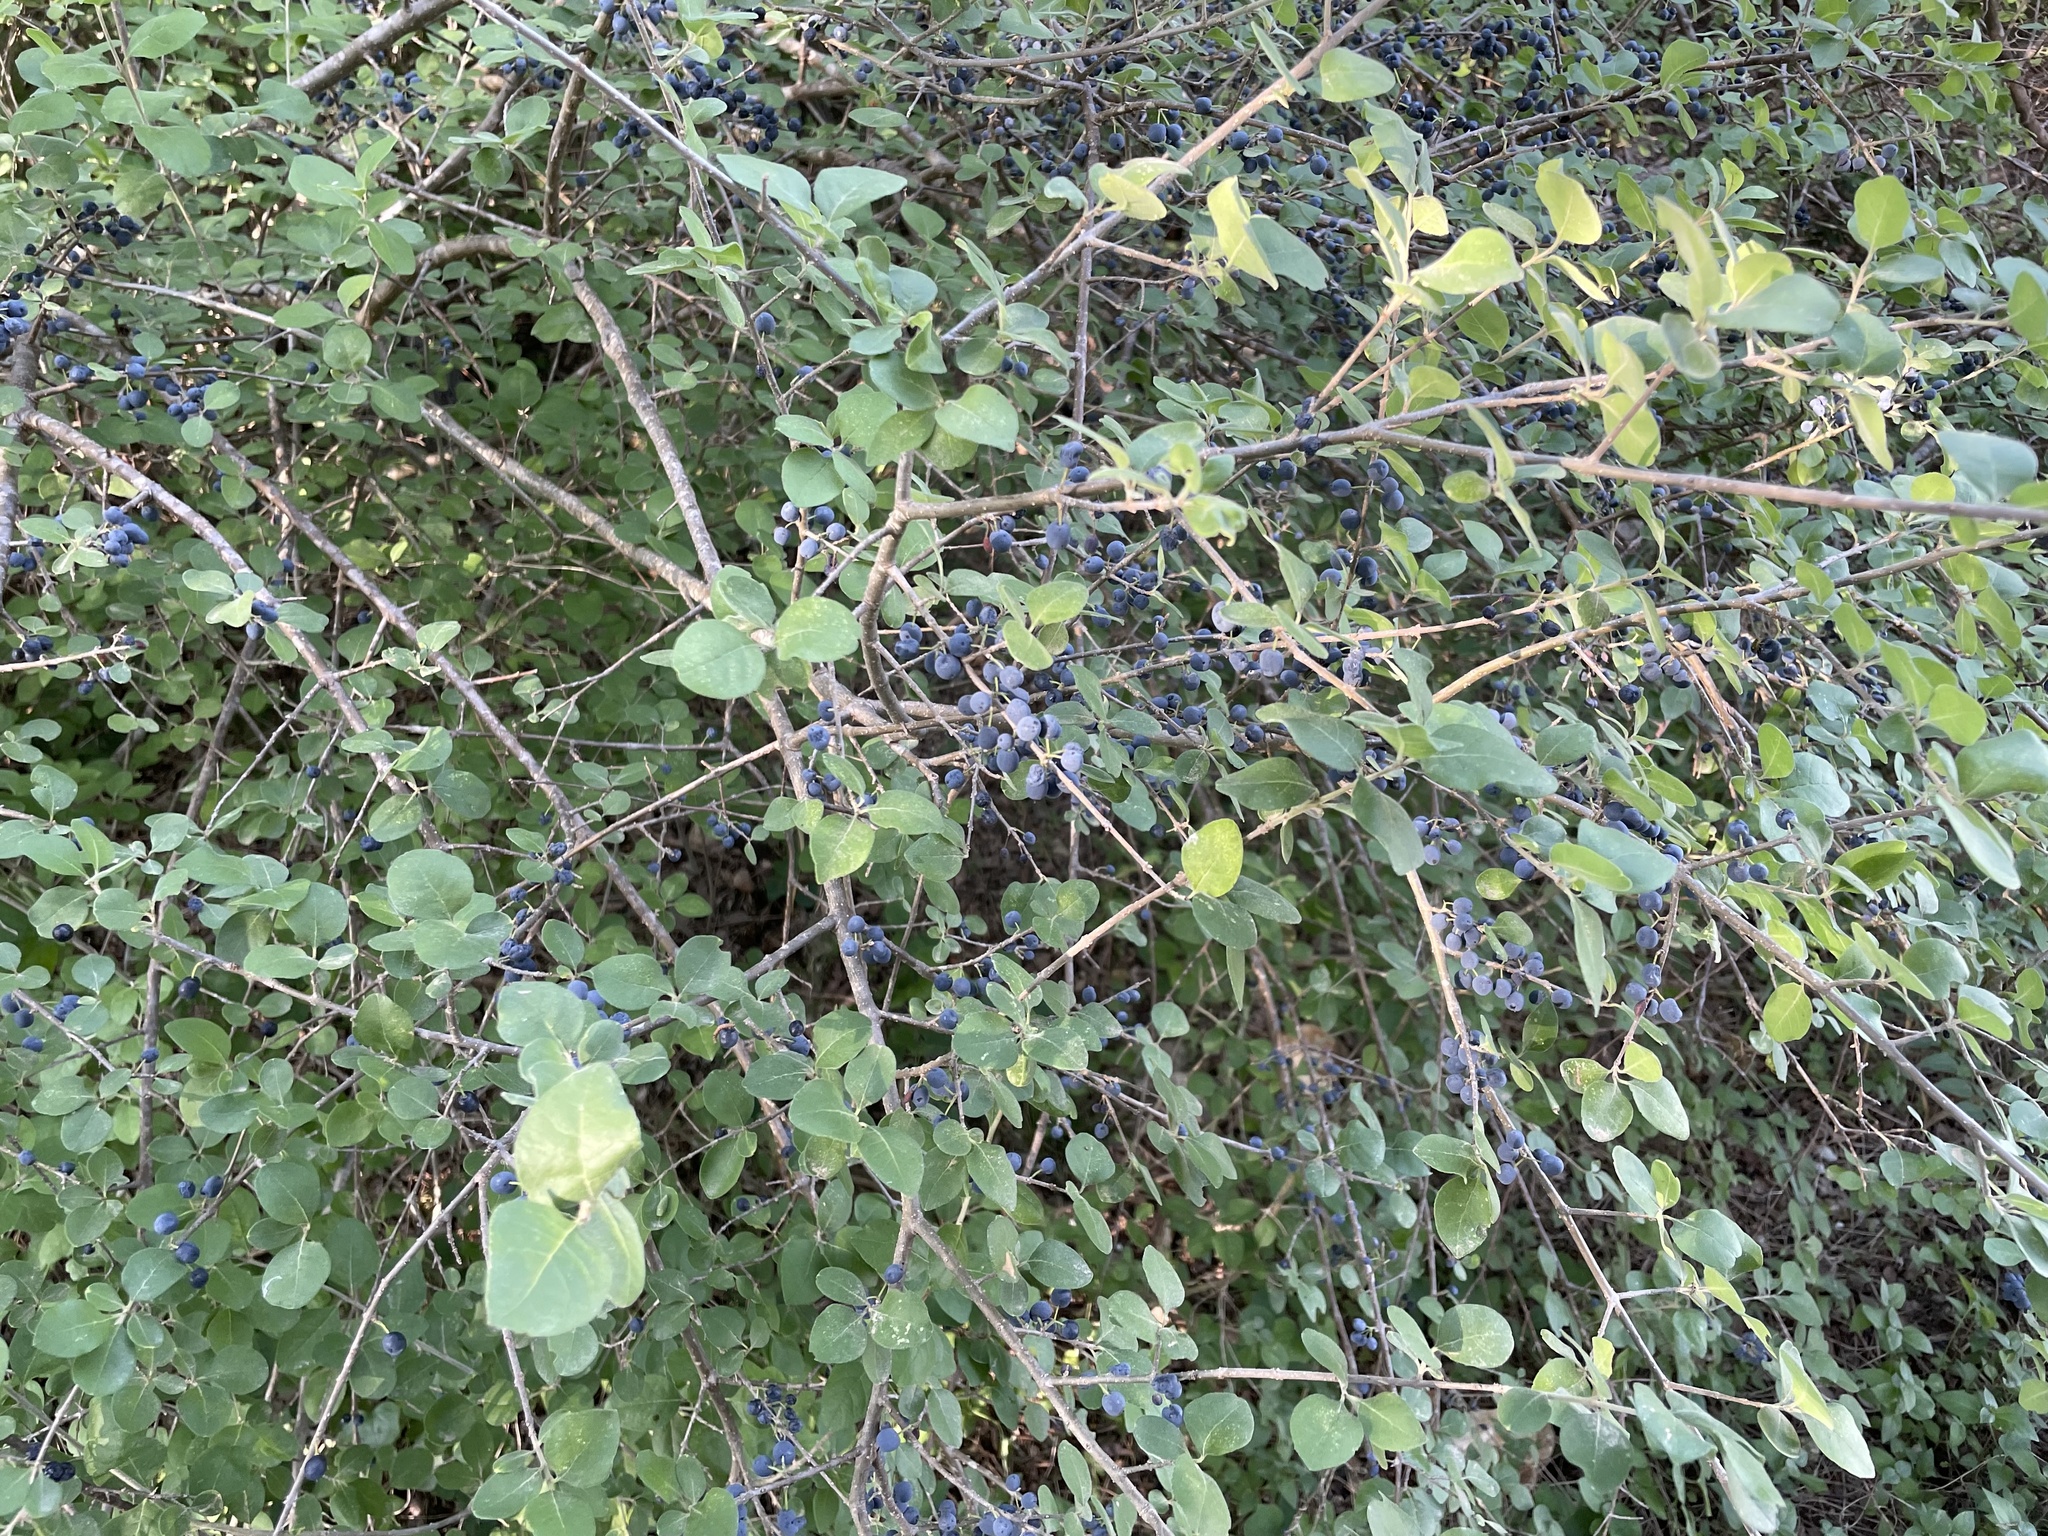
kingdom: Plantae
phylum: Tracheophyta
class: Magnoliopsida
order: Lamiales
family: Oleaceae
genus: Forestiera
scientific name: Forestiera pubescens
